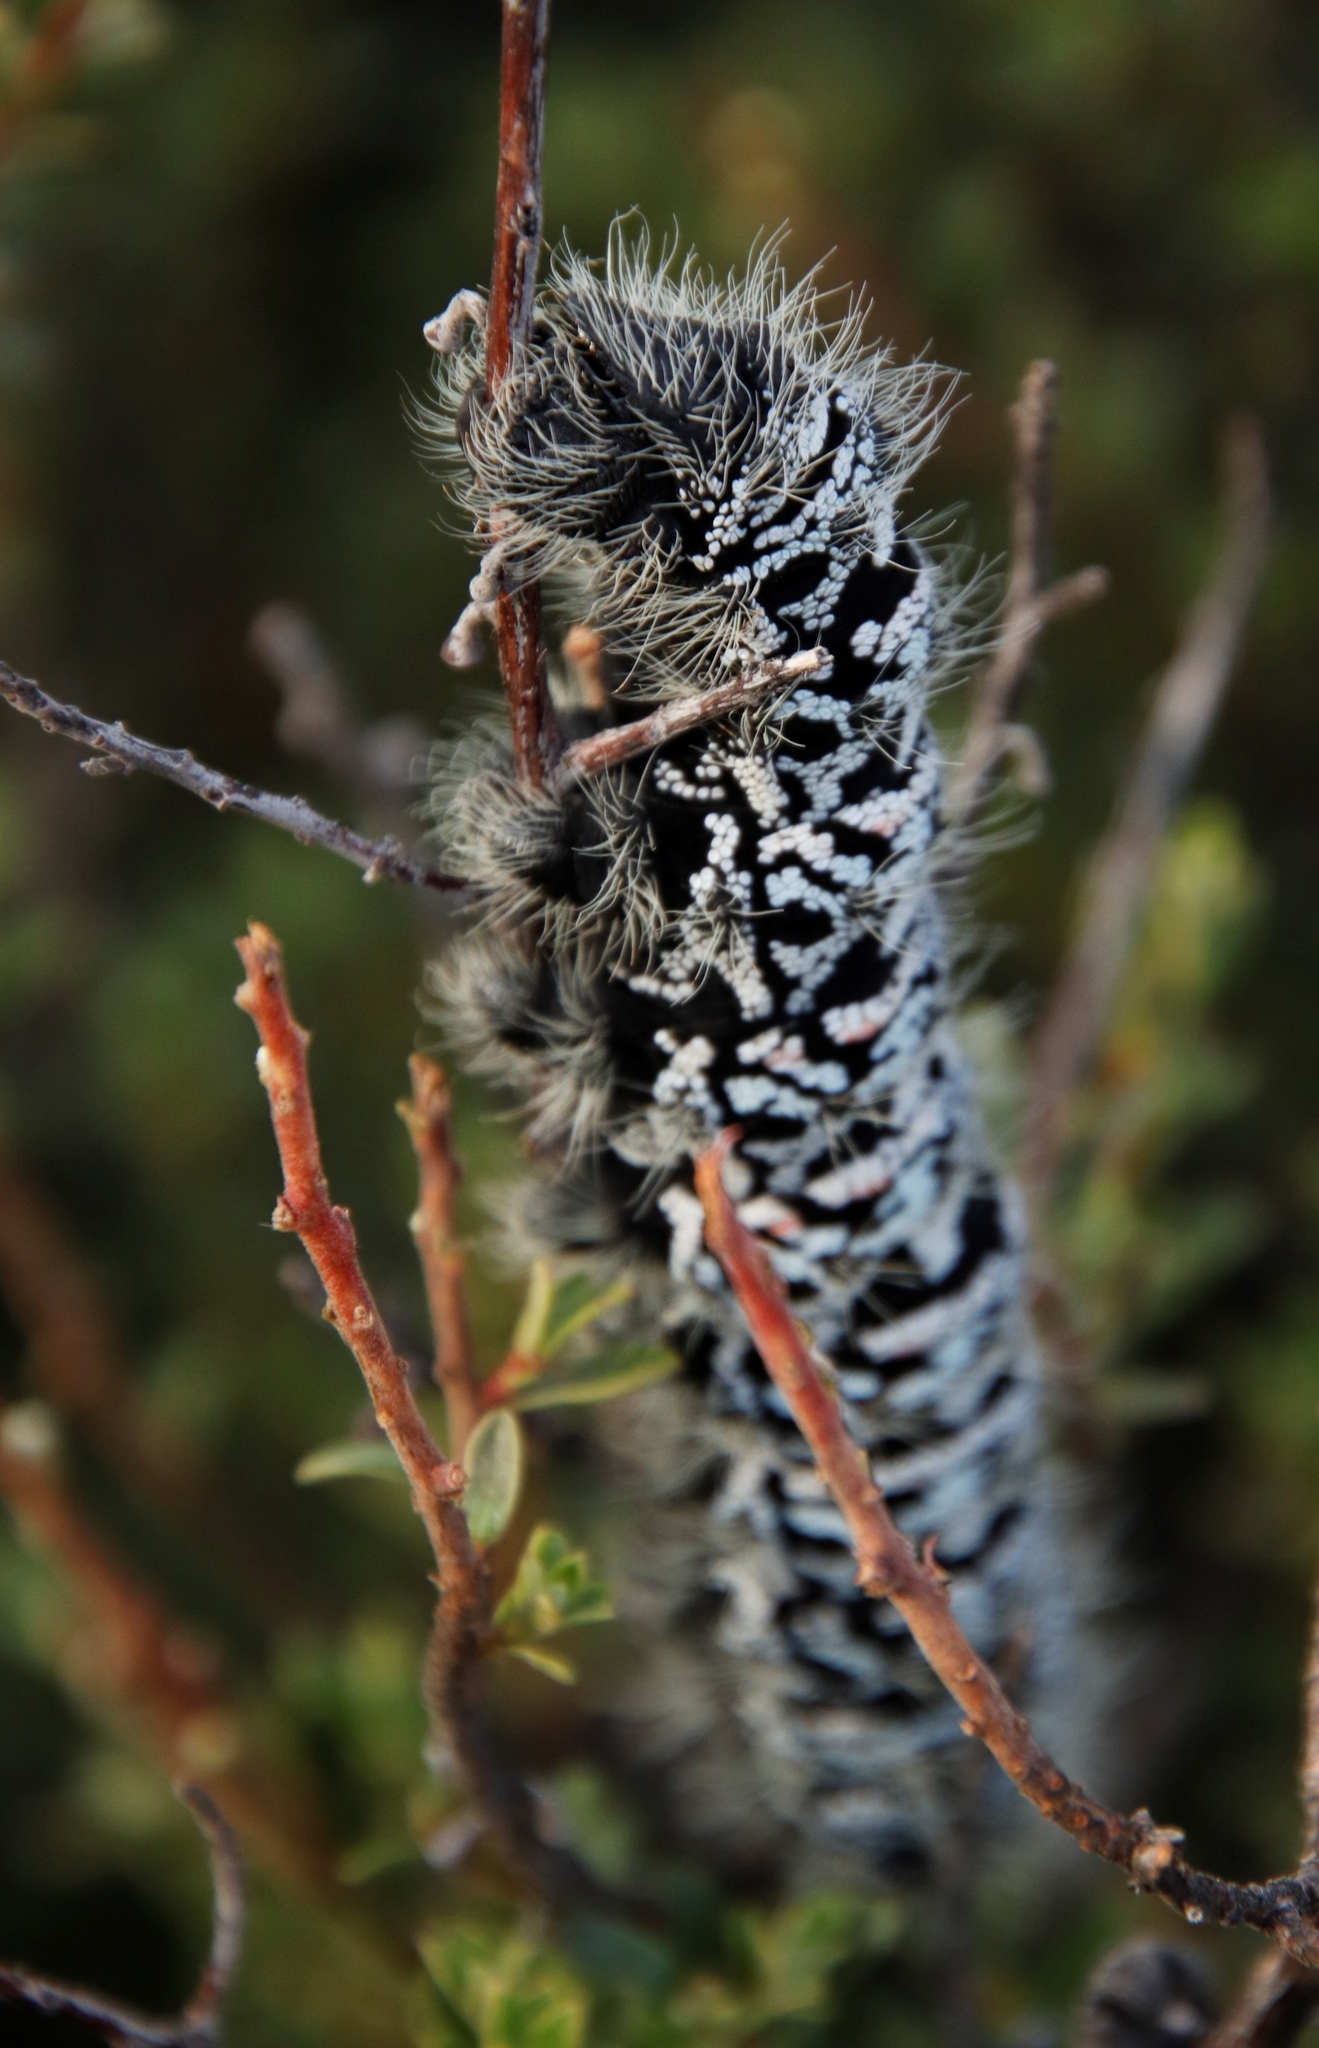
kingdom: Animalia
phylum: Arthropoda
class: Insecta
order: Lepidoptera
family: Saturniidae
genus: Gonimbrasia
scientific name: Gonimbrasia tyrrhea
